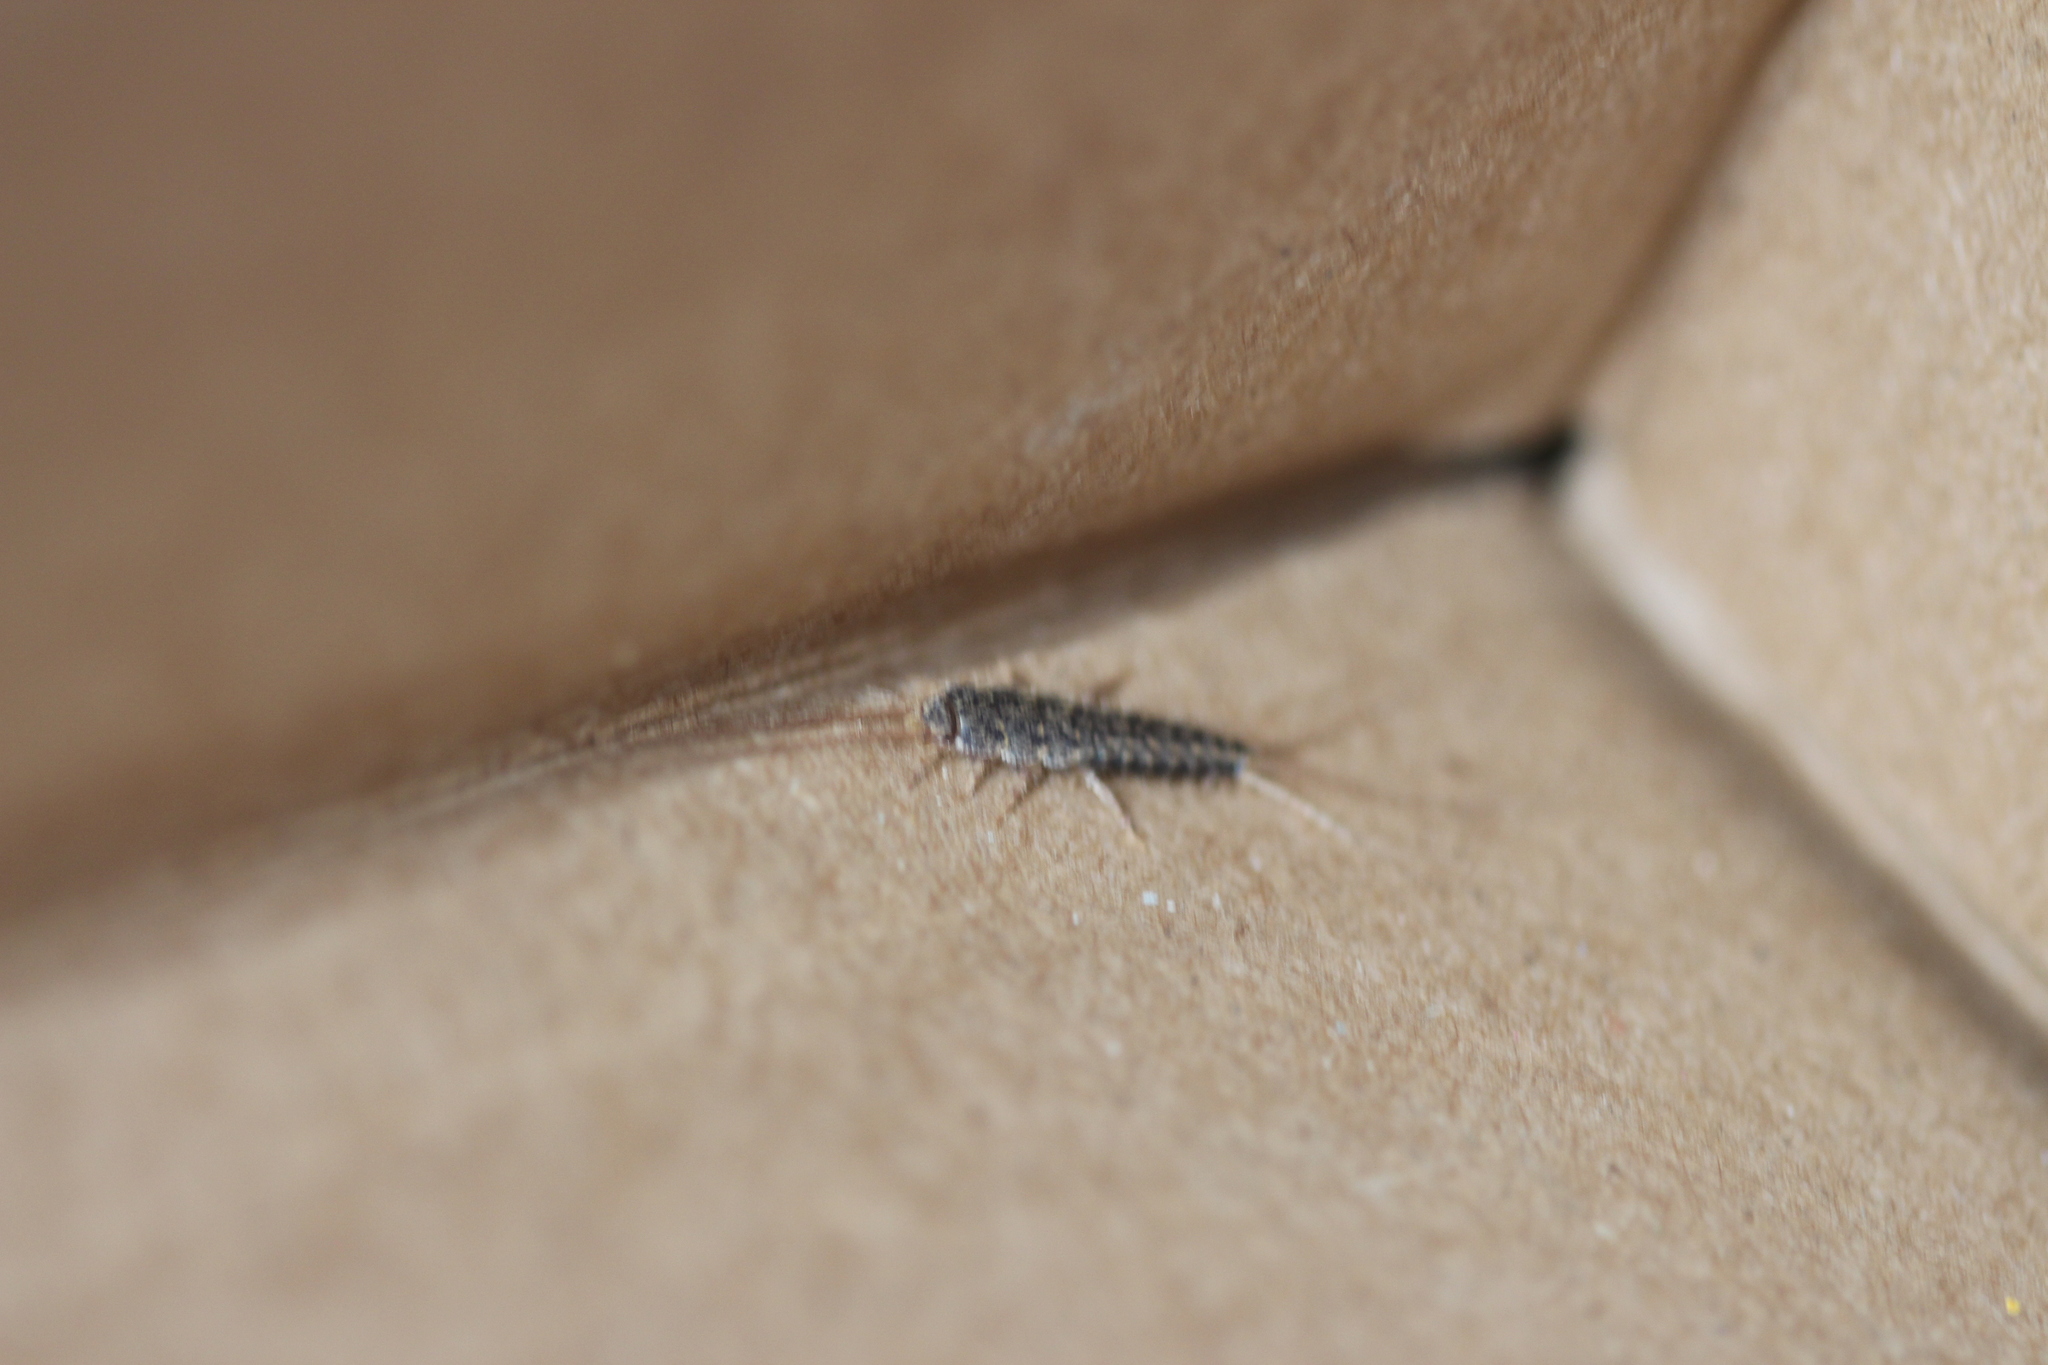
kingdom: Animalia
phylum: Arthropoda
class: Insecta
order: Zygentoma
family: Lepismatidae
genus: Ctenolepisma
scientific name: Ctenolepisma lineata
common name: Four-lined silverfish
